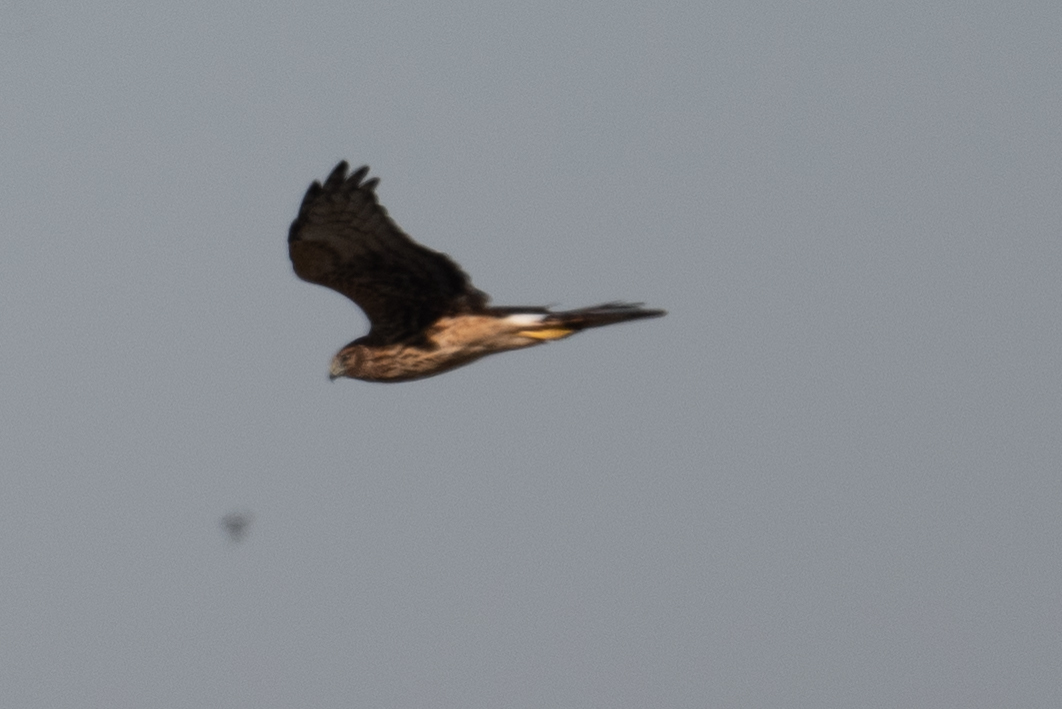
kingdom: Animalia
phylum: Chordata
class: Aves
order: Accipitriformes
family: Accipitridae
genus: Circus
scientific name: Circus cyaneus
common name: Hen harrier
